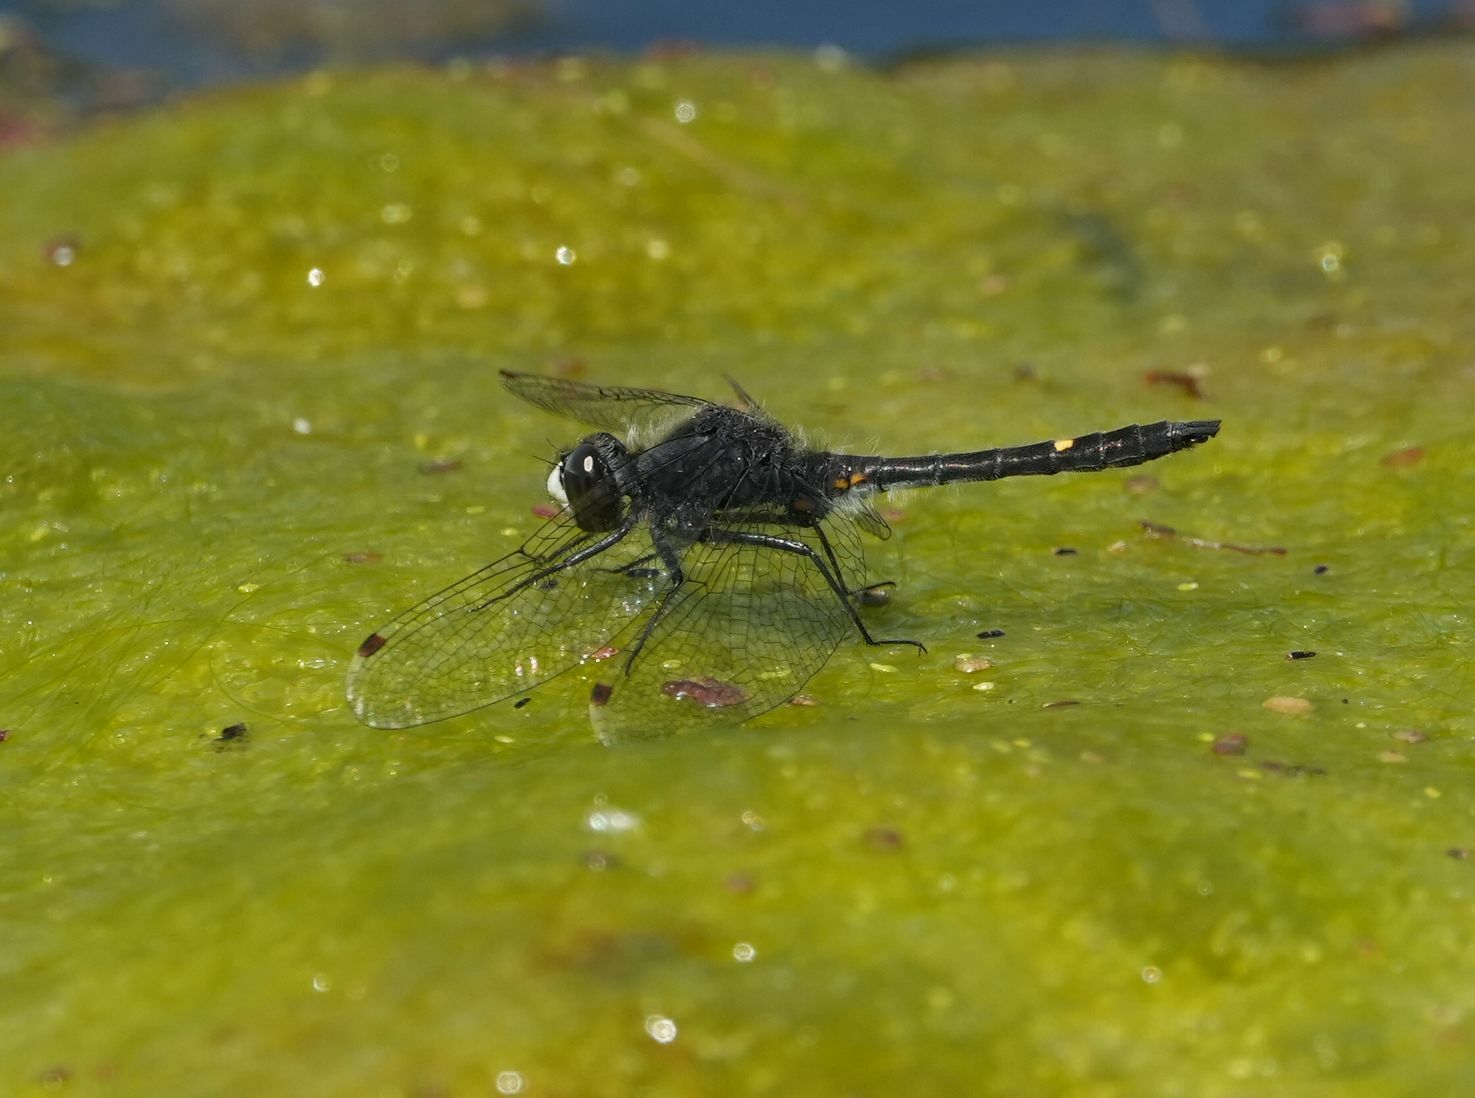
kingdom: Animalia
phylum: Arthropoda
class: Insecta
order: Odonata
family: Libellulidae
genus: Leucorrhinia
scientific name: Leucorrhinia intacta
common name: Dot-tailed whiteface
